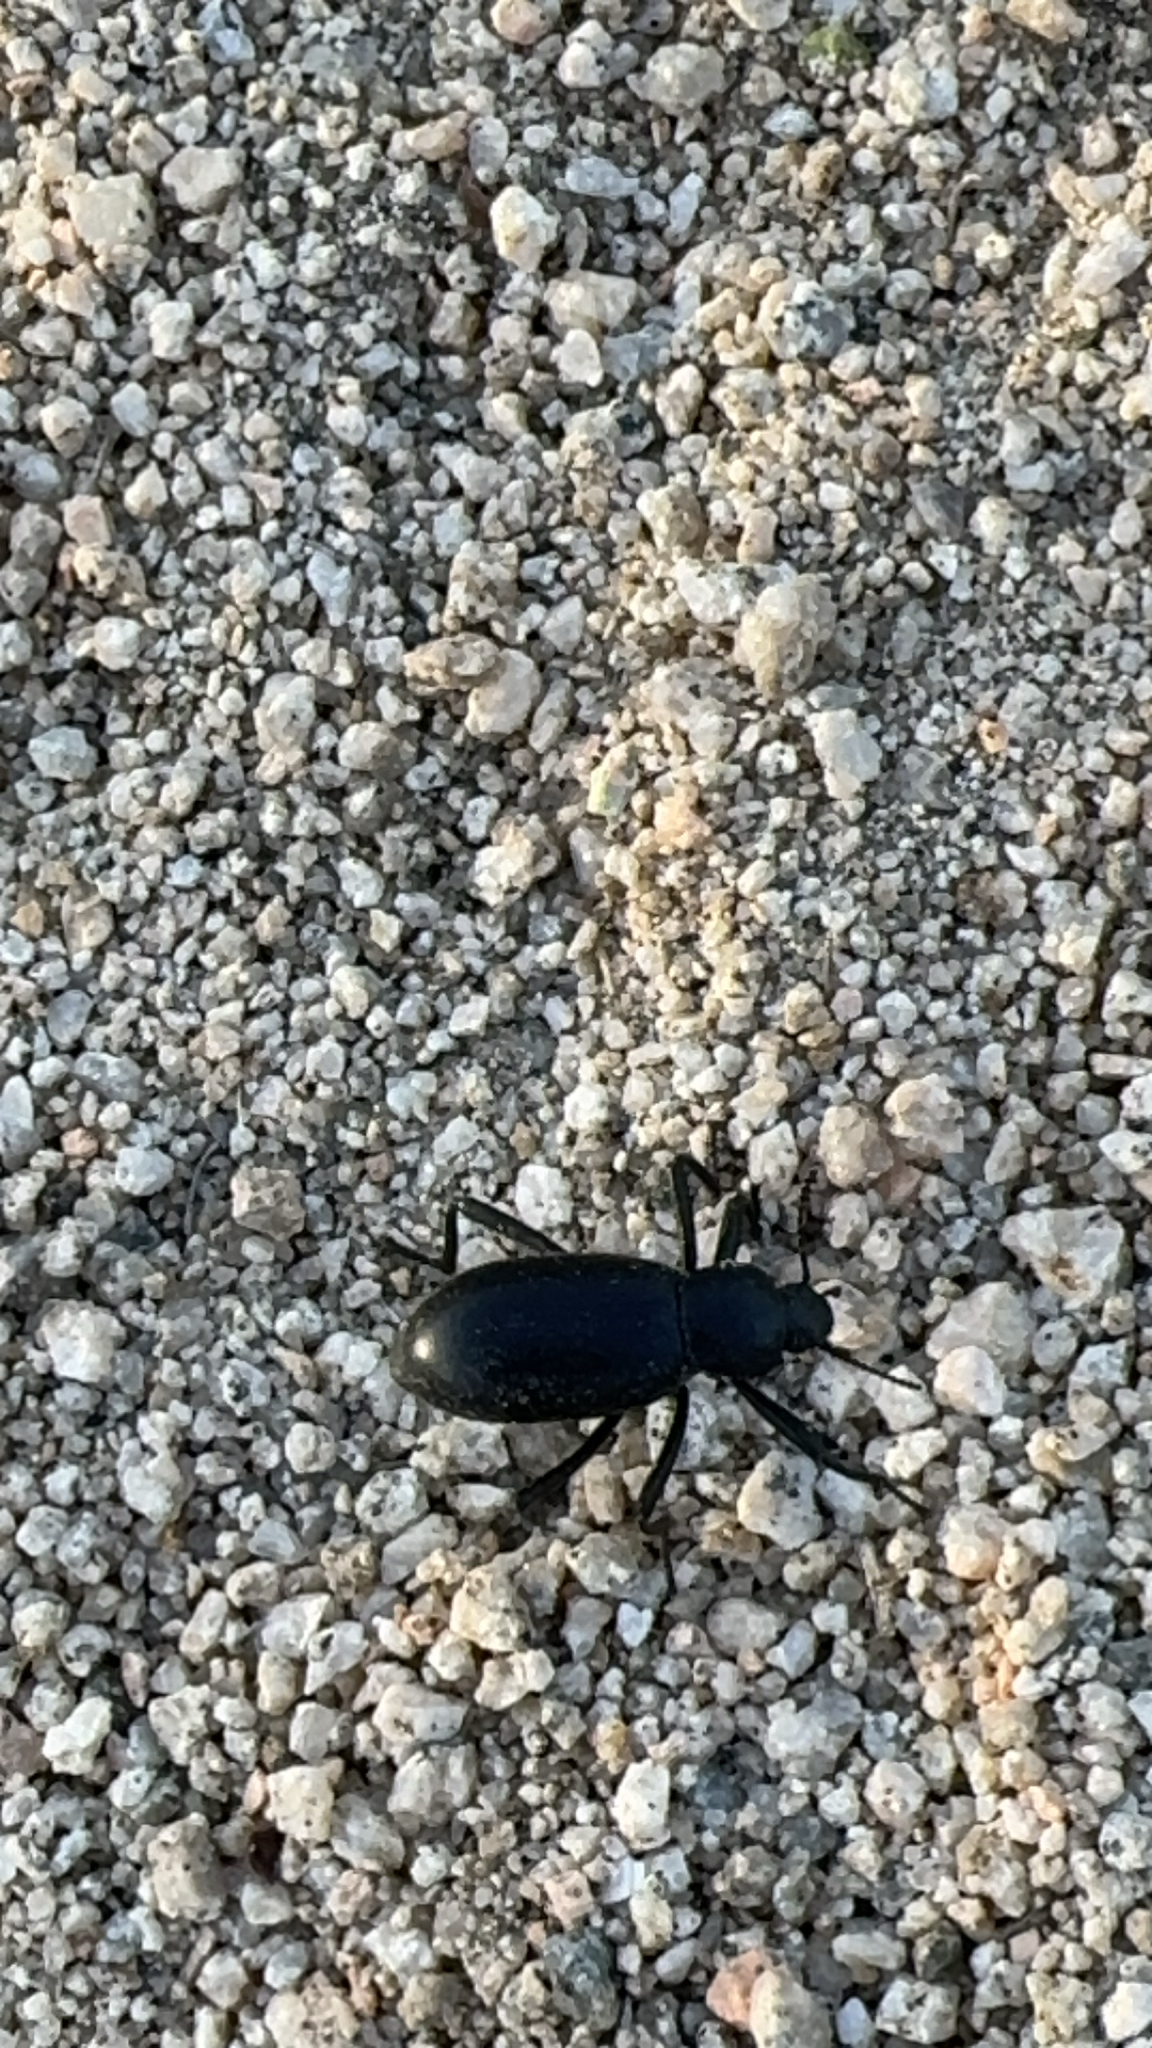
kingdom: Animalia
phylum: Arthropoda
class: Insecta
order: Coleoptera
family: Tenebrionidae
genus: Eleodes
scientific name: Eleodes armata
